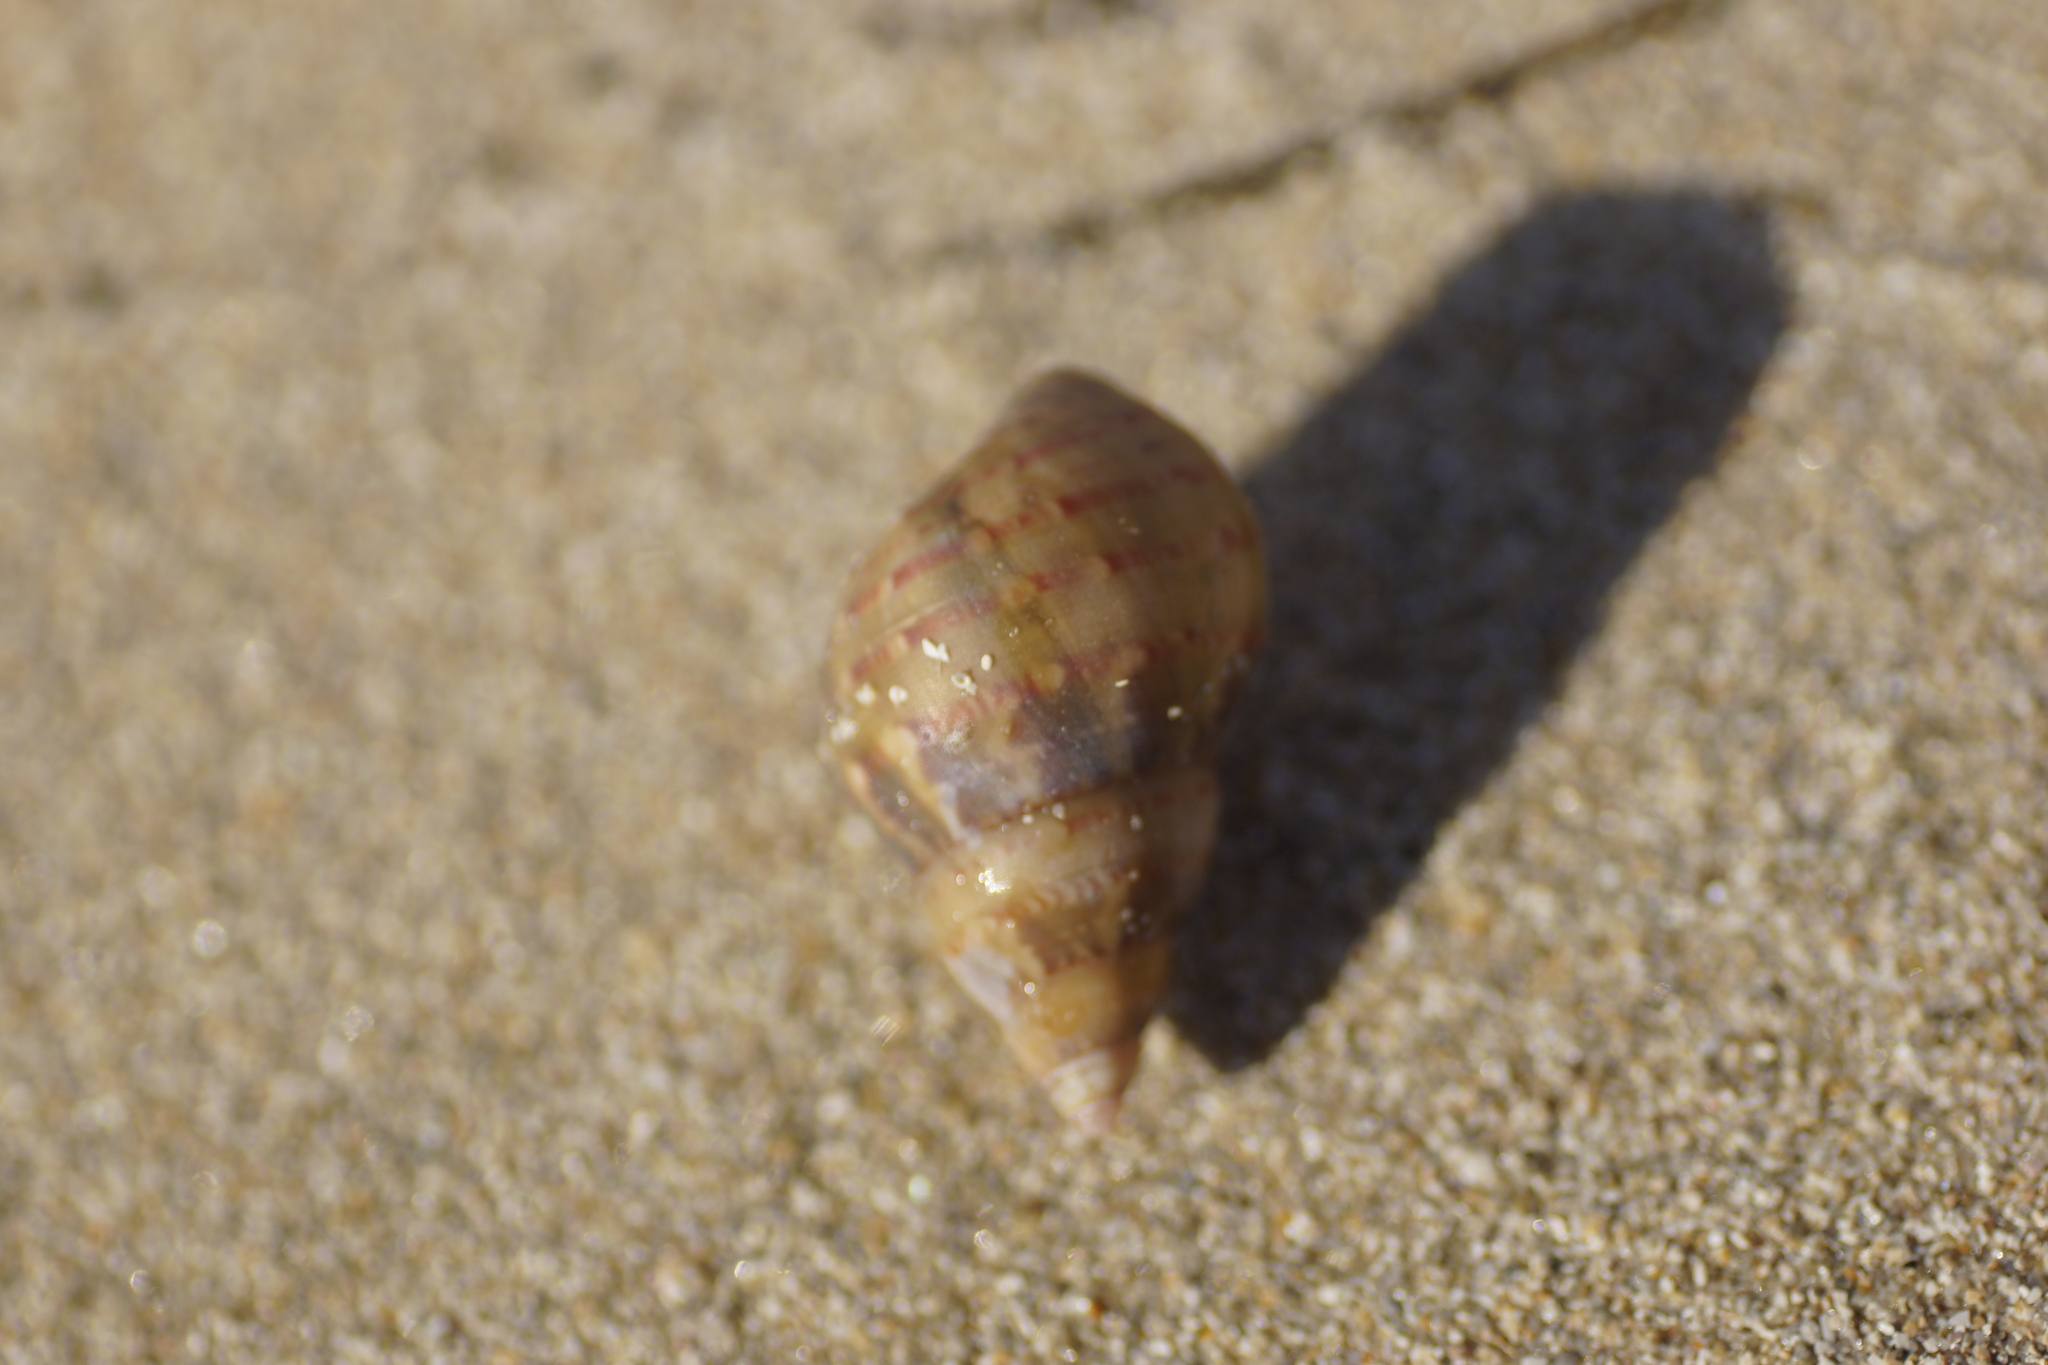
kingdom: Animalia
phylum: Mollusca
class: Gastropoda
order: Trochida
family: Phasianellidae
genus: Phasianella
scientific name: Phasianella australis
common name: Painted lady
